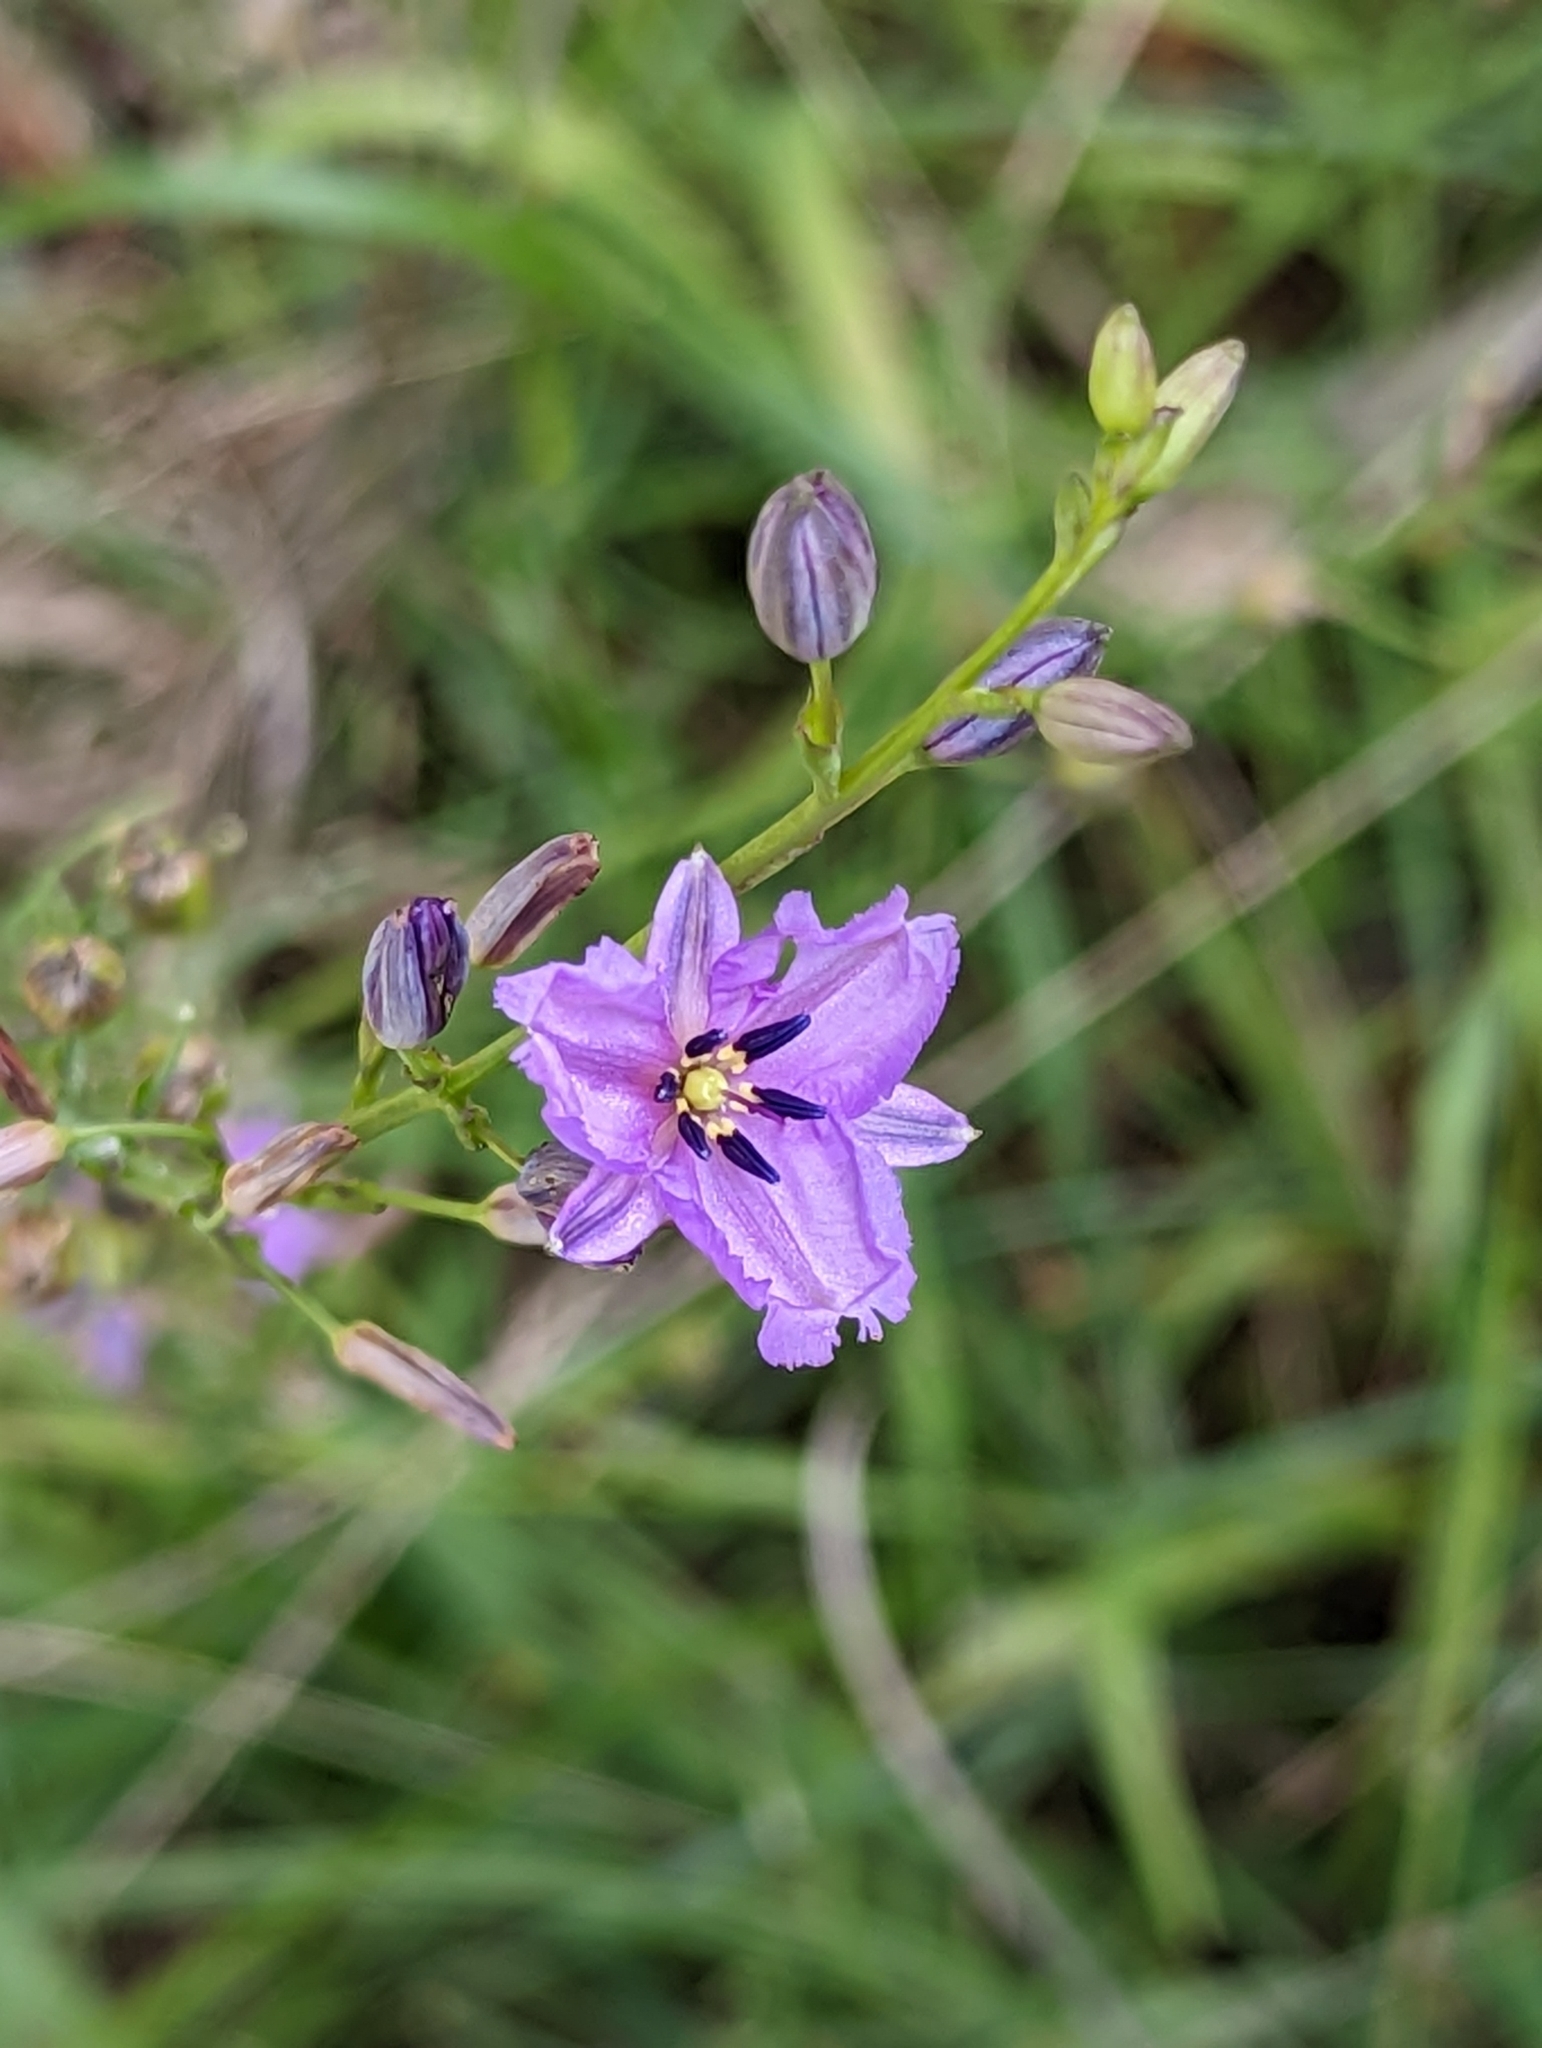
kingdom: Plantae
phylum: Tracheophyta
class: Liliopsida
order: Asparagales
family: Asparagaceae
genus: Arthropodium
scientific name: Arthropodium strictum
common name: Chocolate-lily
